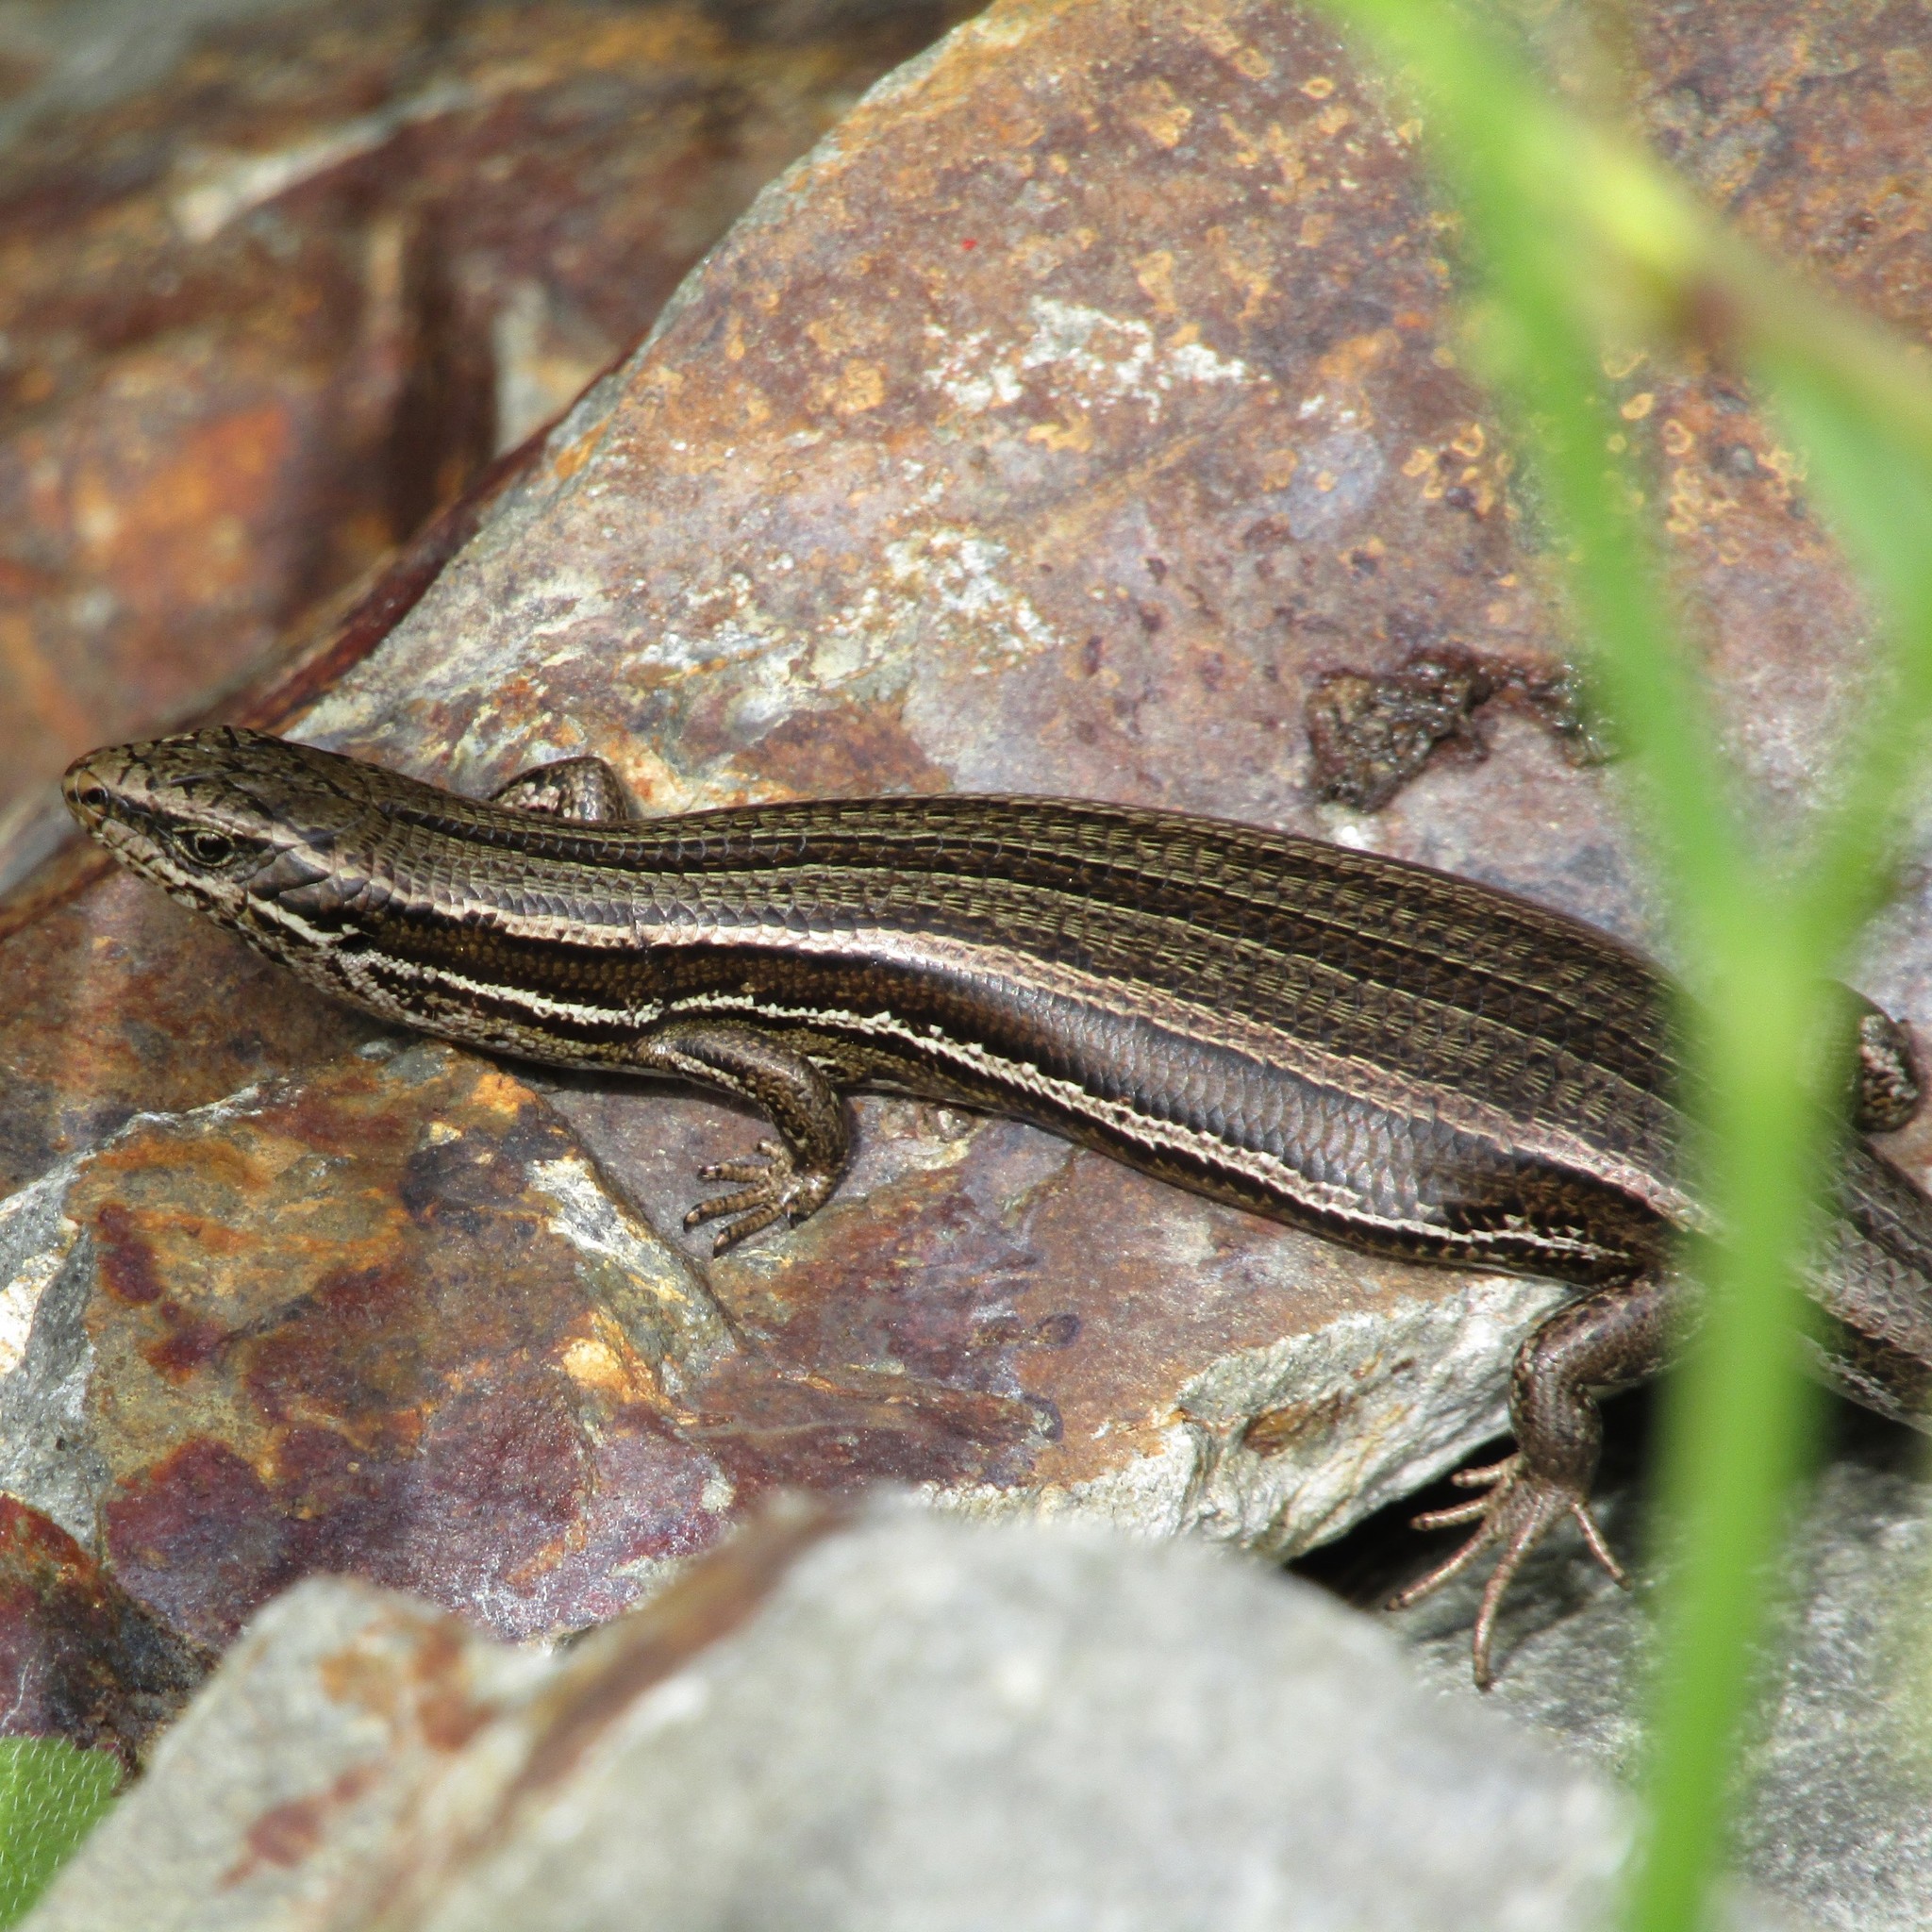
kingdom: Animalia
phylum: Chordata
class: Squamata
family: Scincidae
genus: Oligosoma
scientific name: Oligosoma polychroma
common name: Common new zealand skink
